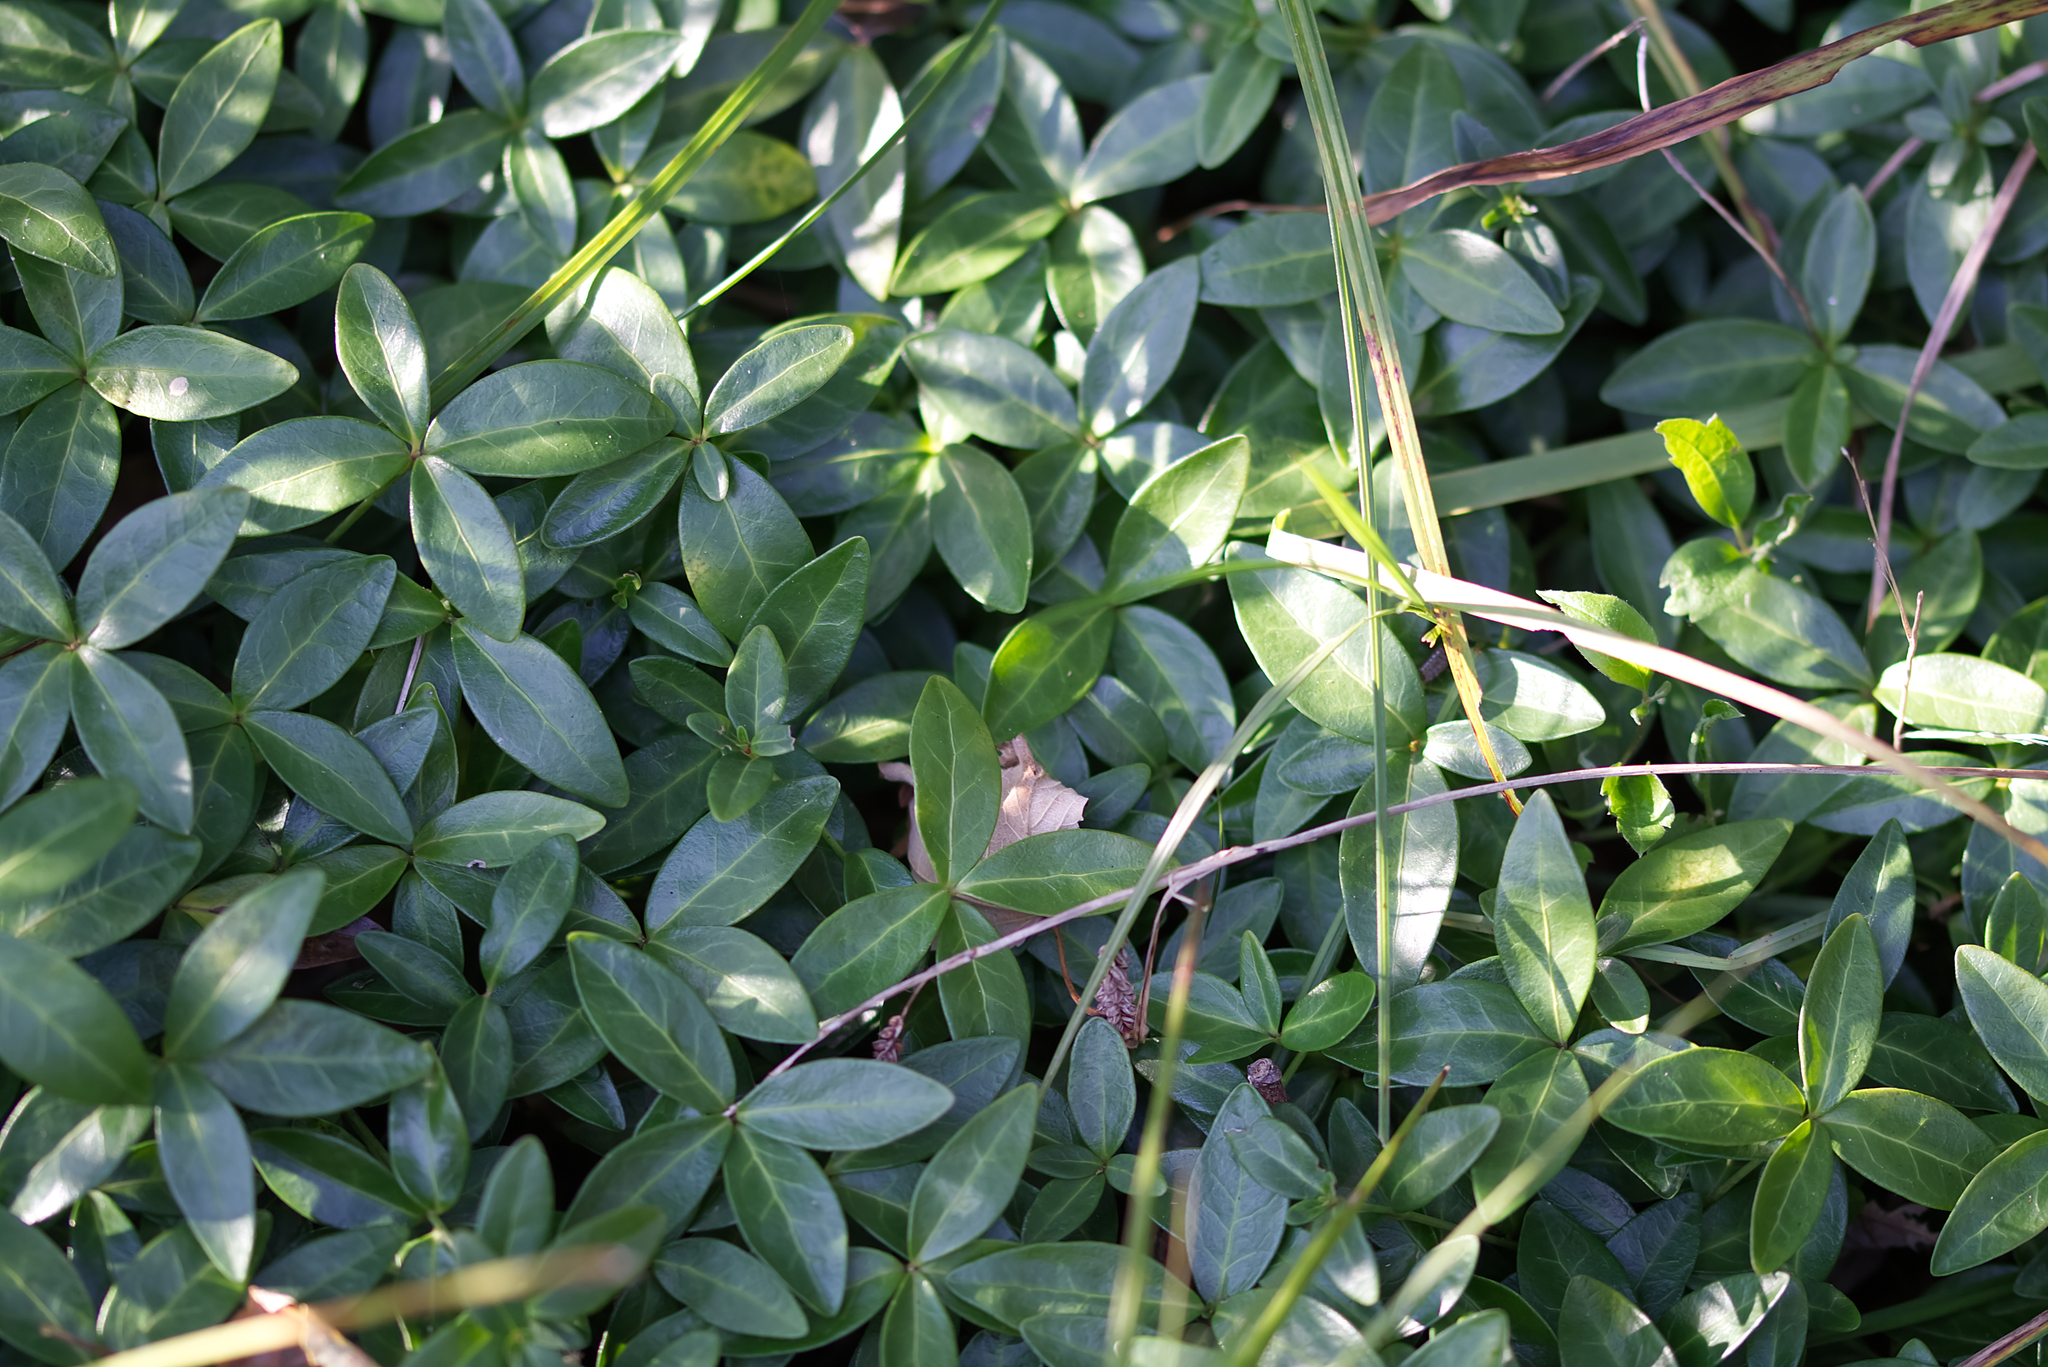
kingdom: Plantae
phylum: Tracheophyta
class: Magnoliopsida
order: Gentianales
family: Apocynaceae
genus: Vinca
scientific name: Vinca minor
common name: Lesser periwinkle
